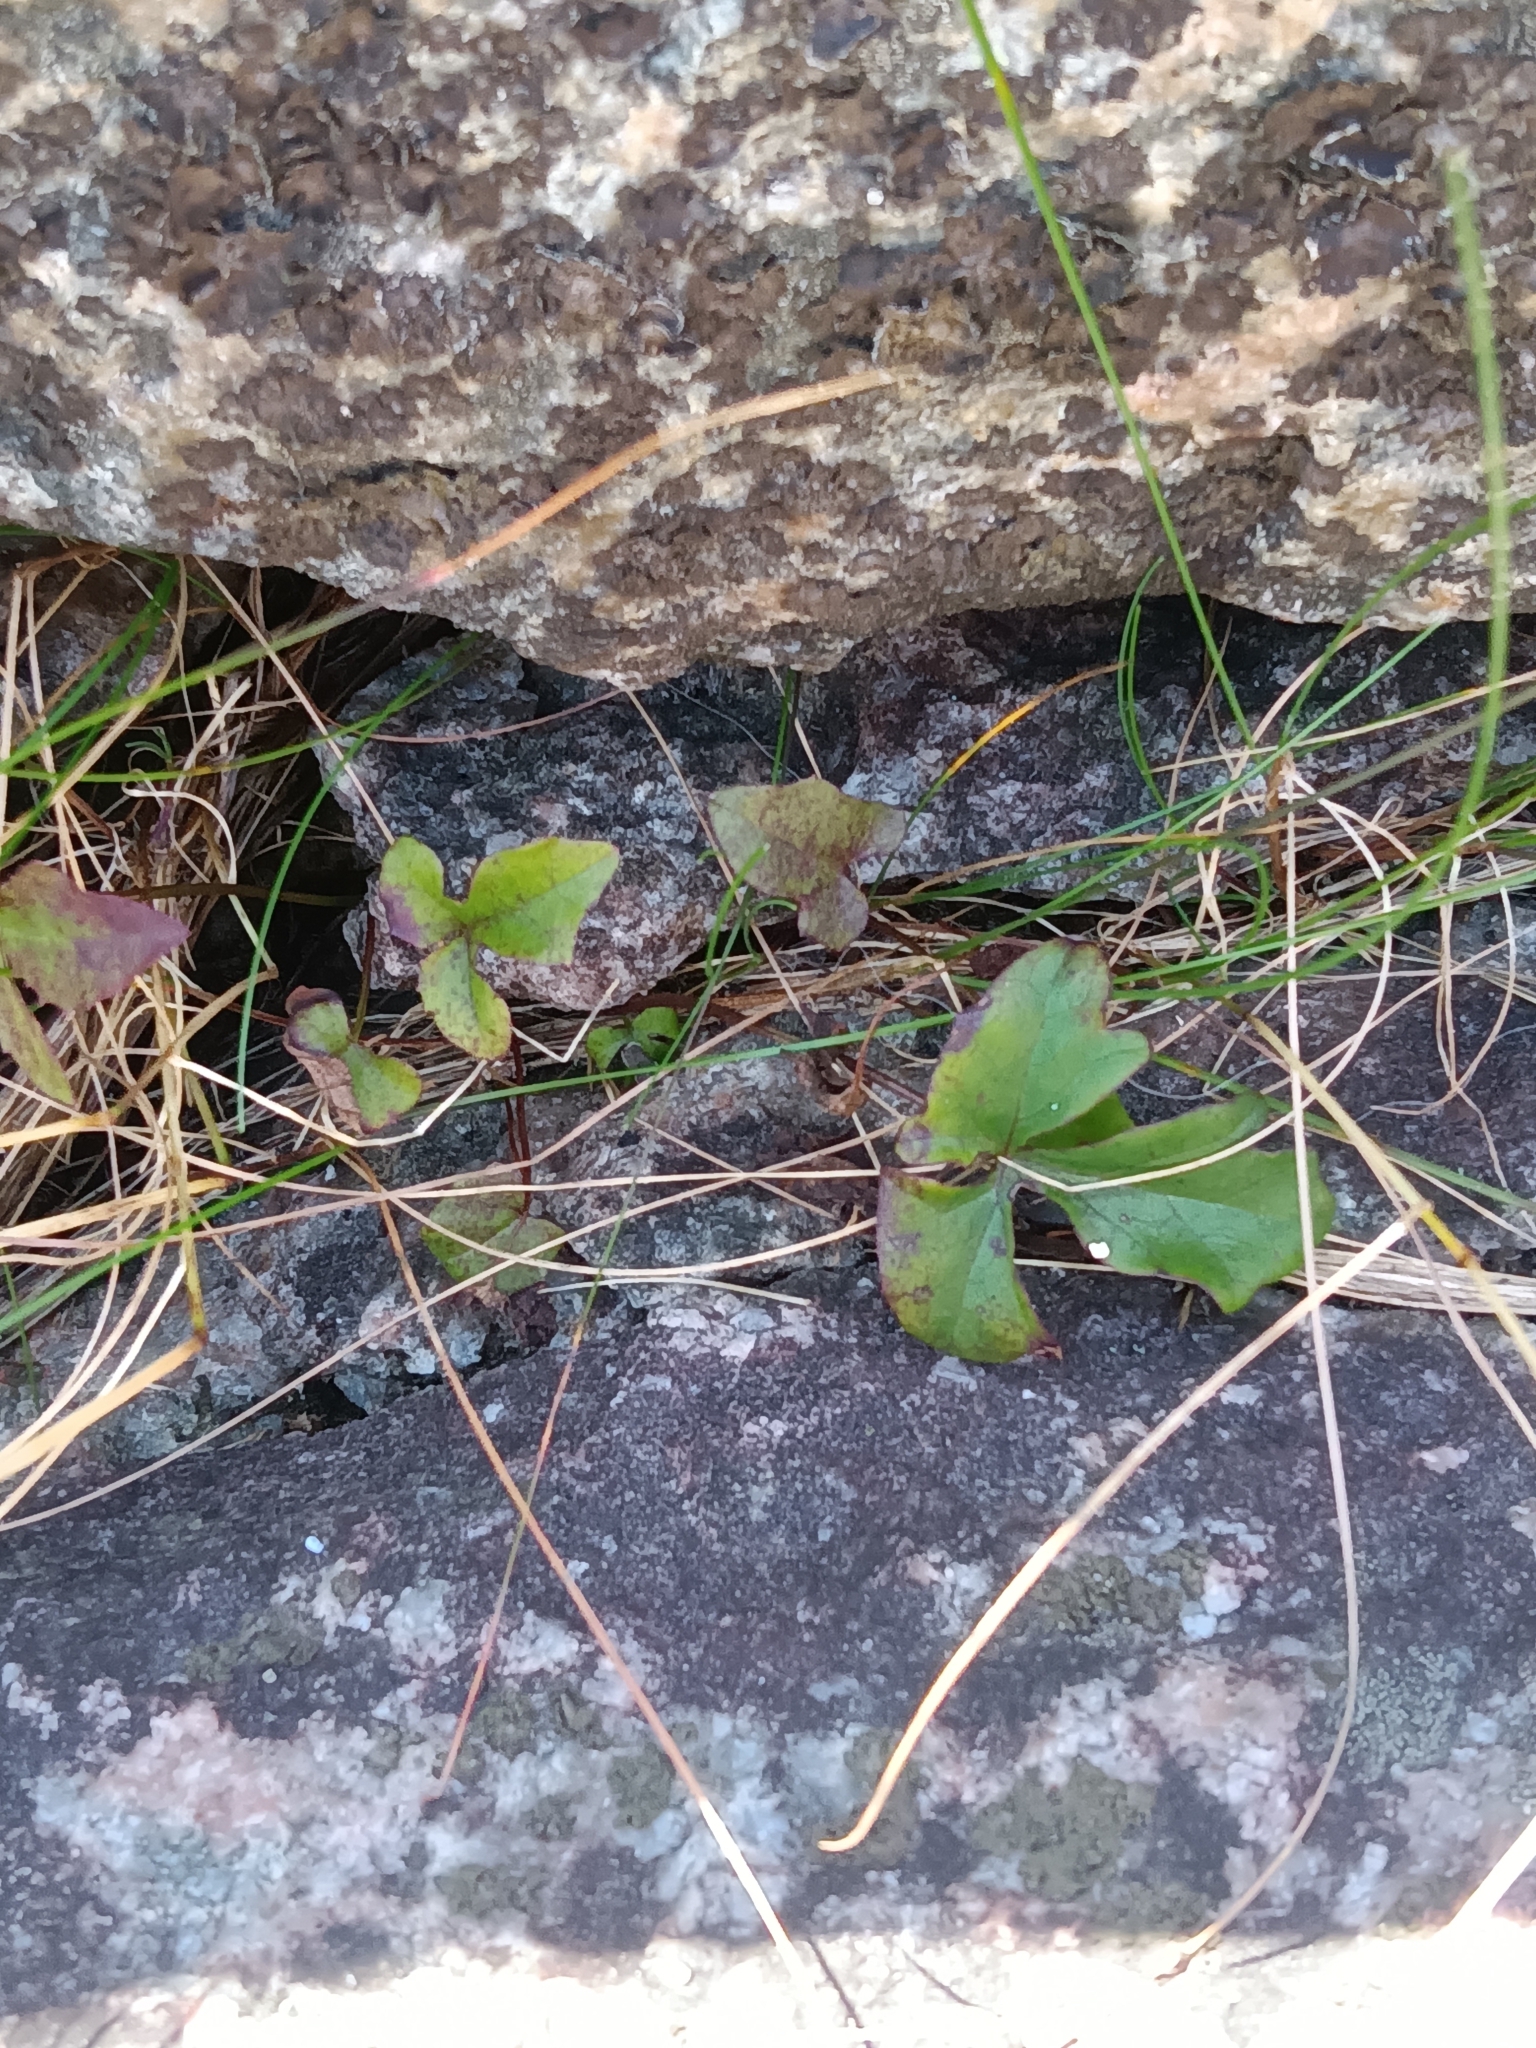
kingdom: Plantae
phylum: Tracheophyta
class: Magnoliopsida
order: Asterales
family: Asteraceae
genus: Nabalus
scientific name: Nabalus trifoliolatus
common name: Gall-of-the-earth
